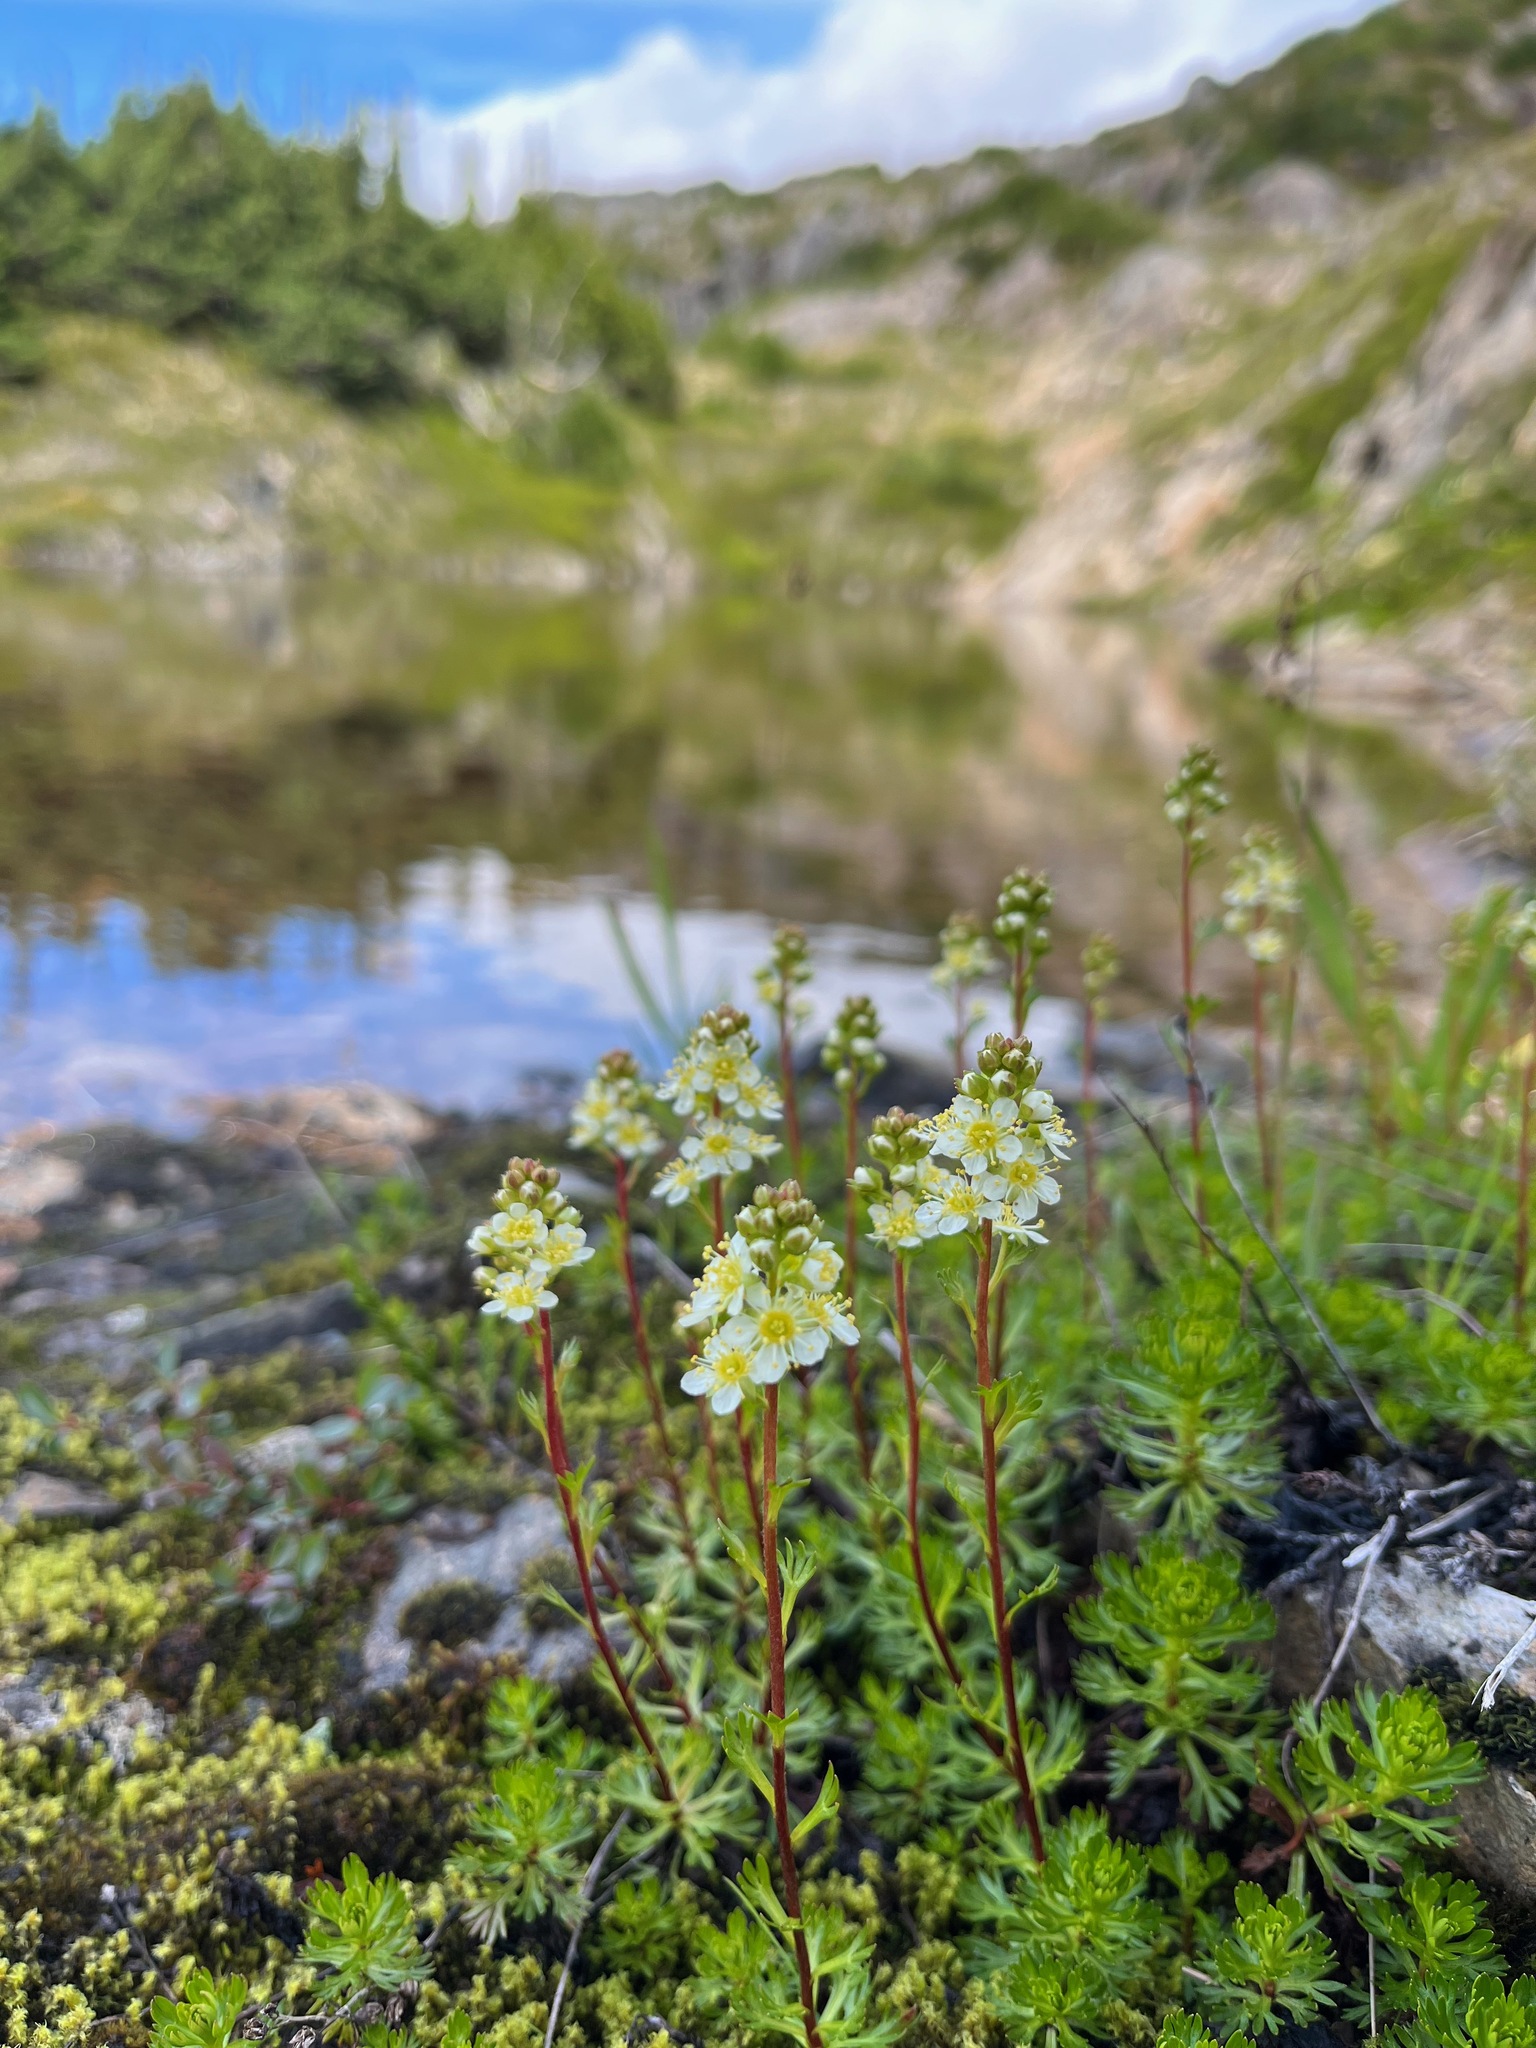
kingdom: Plantae
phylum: Tracheophyta
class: Magnoliopsida
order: Rosales
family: Rosaceae
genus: Luetkea
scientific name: Luetkea pectinata
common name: Partridgefoot
